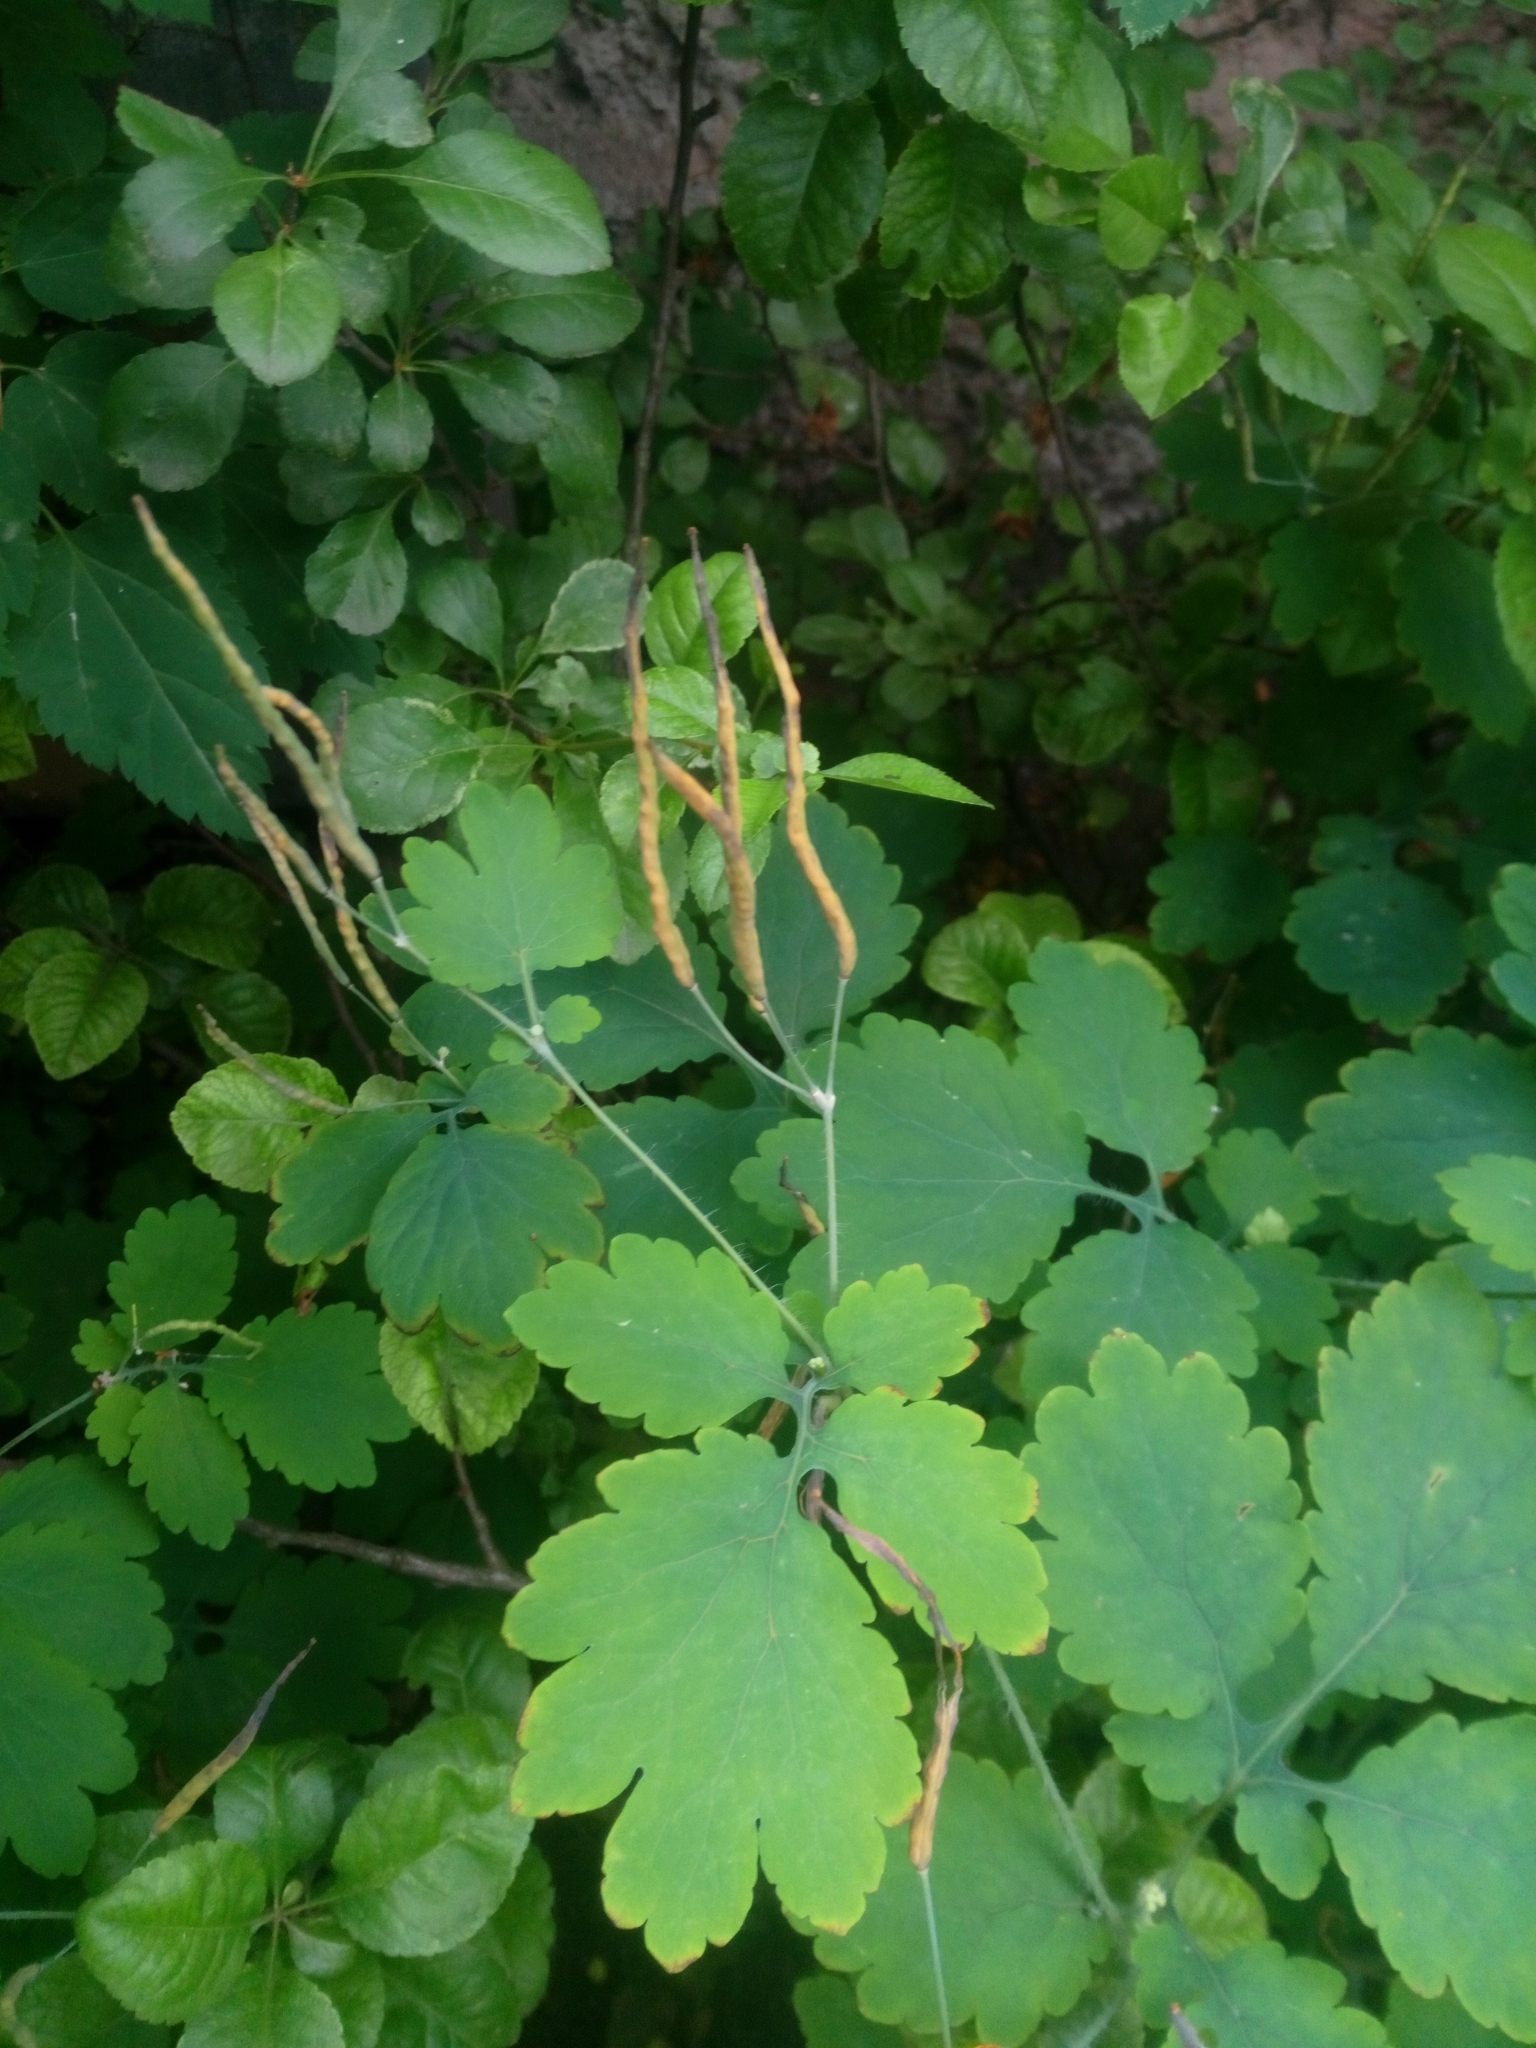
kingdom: Plantae
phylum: Tracheophyta
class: Magnoliopsida
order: Ranunculales
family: Papaveraceae
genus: Chelidonium
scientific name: Chelidonium majus
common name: Greater celandine
